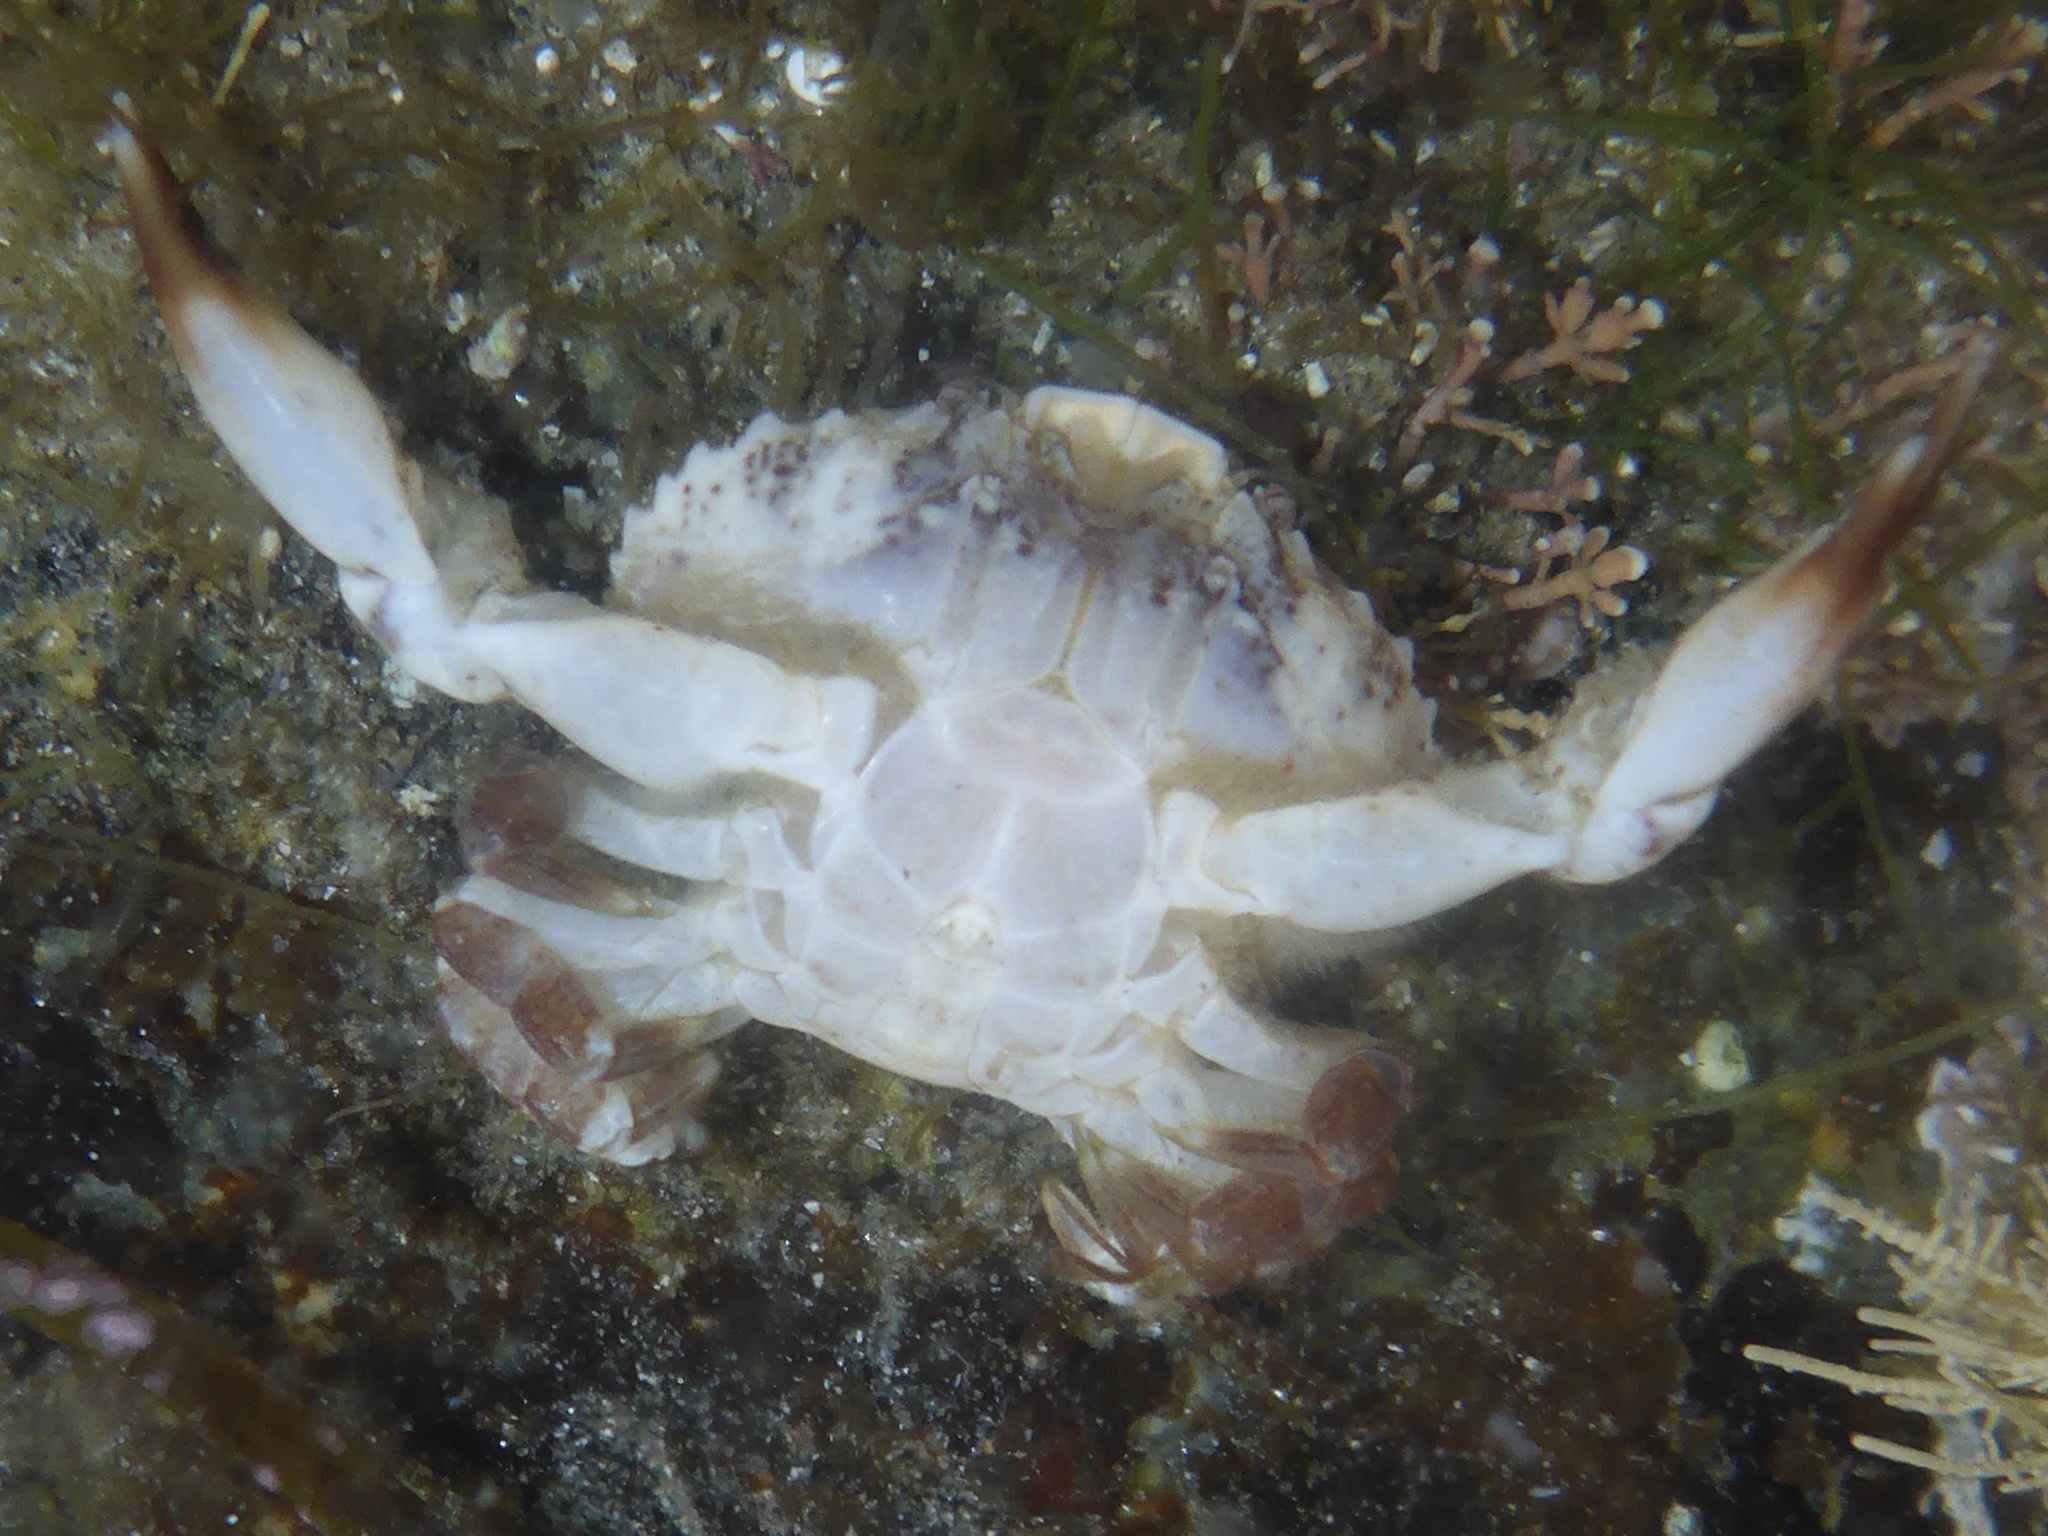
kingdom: Animalia
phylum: Arthropoda
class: Malacostraca
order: Decapoda
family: Xanthidae
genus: Cycloxanthops
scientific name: Cycloxanthops novemdentatus
